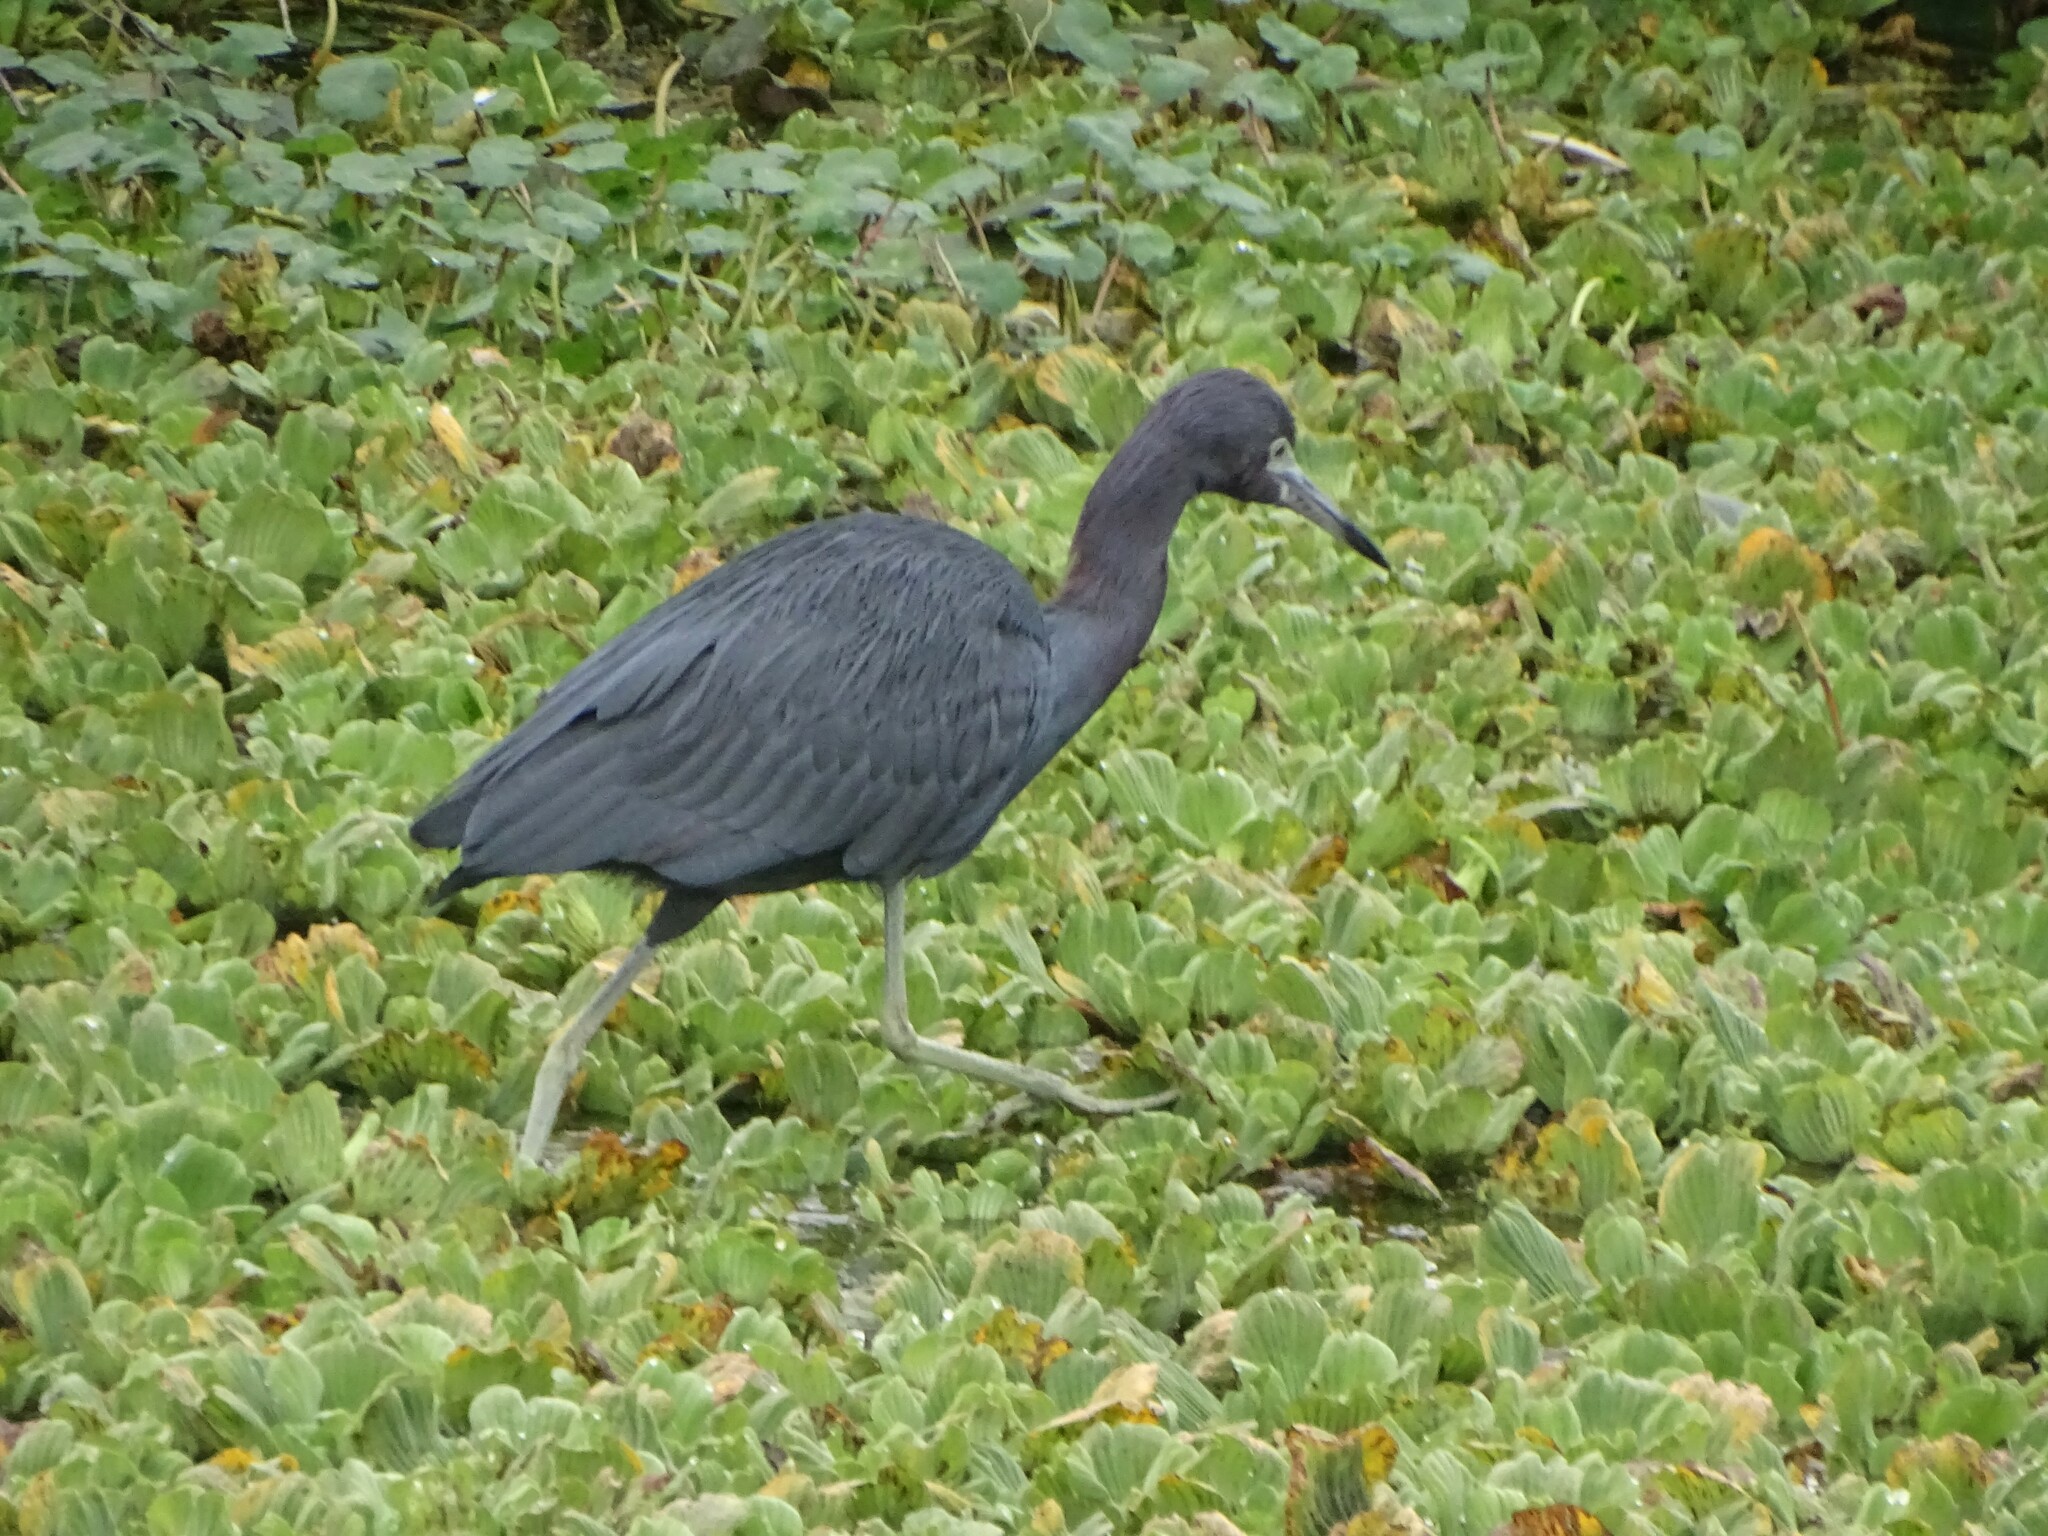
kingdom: Animalia
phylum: Chordata
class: Aves
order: Pelecaniformes
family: Ardeidae
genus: Egretta
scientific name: Egretta caerulea
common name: Little blue heron
